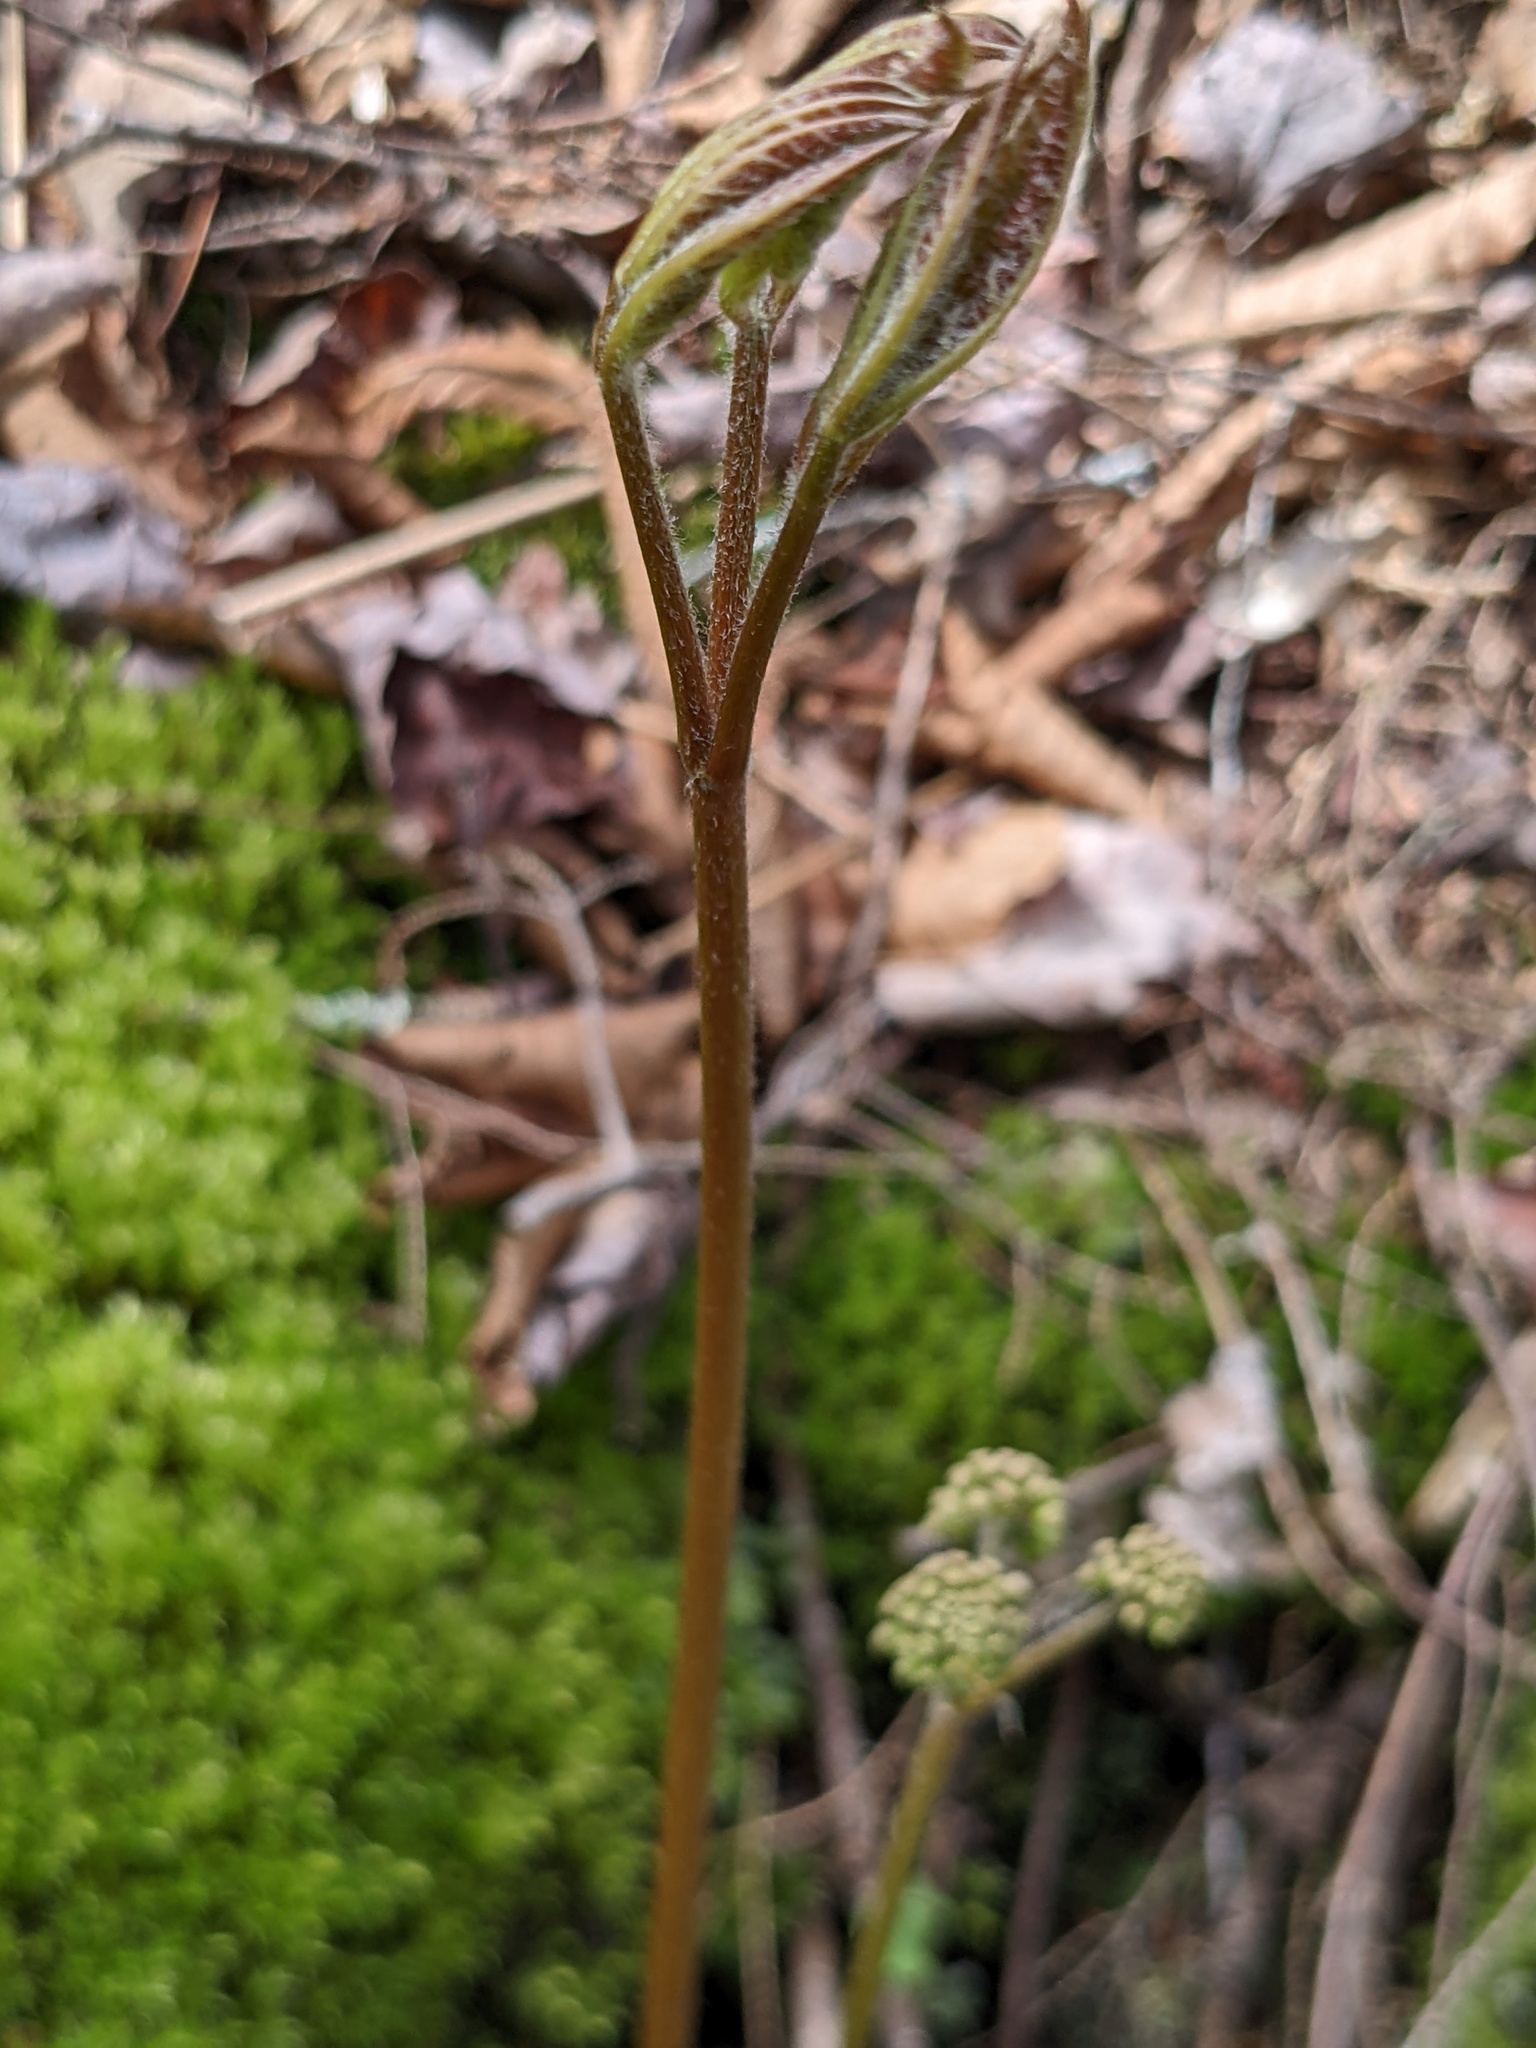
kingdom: Plantae
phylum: Tracheophyta
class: Magnoliopsida
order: Apiales
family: Araliaceae
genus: Aralia
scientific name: Aralia nudicaulis
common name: Wild sarsaparilla
